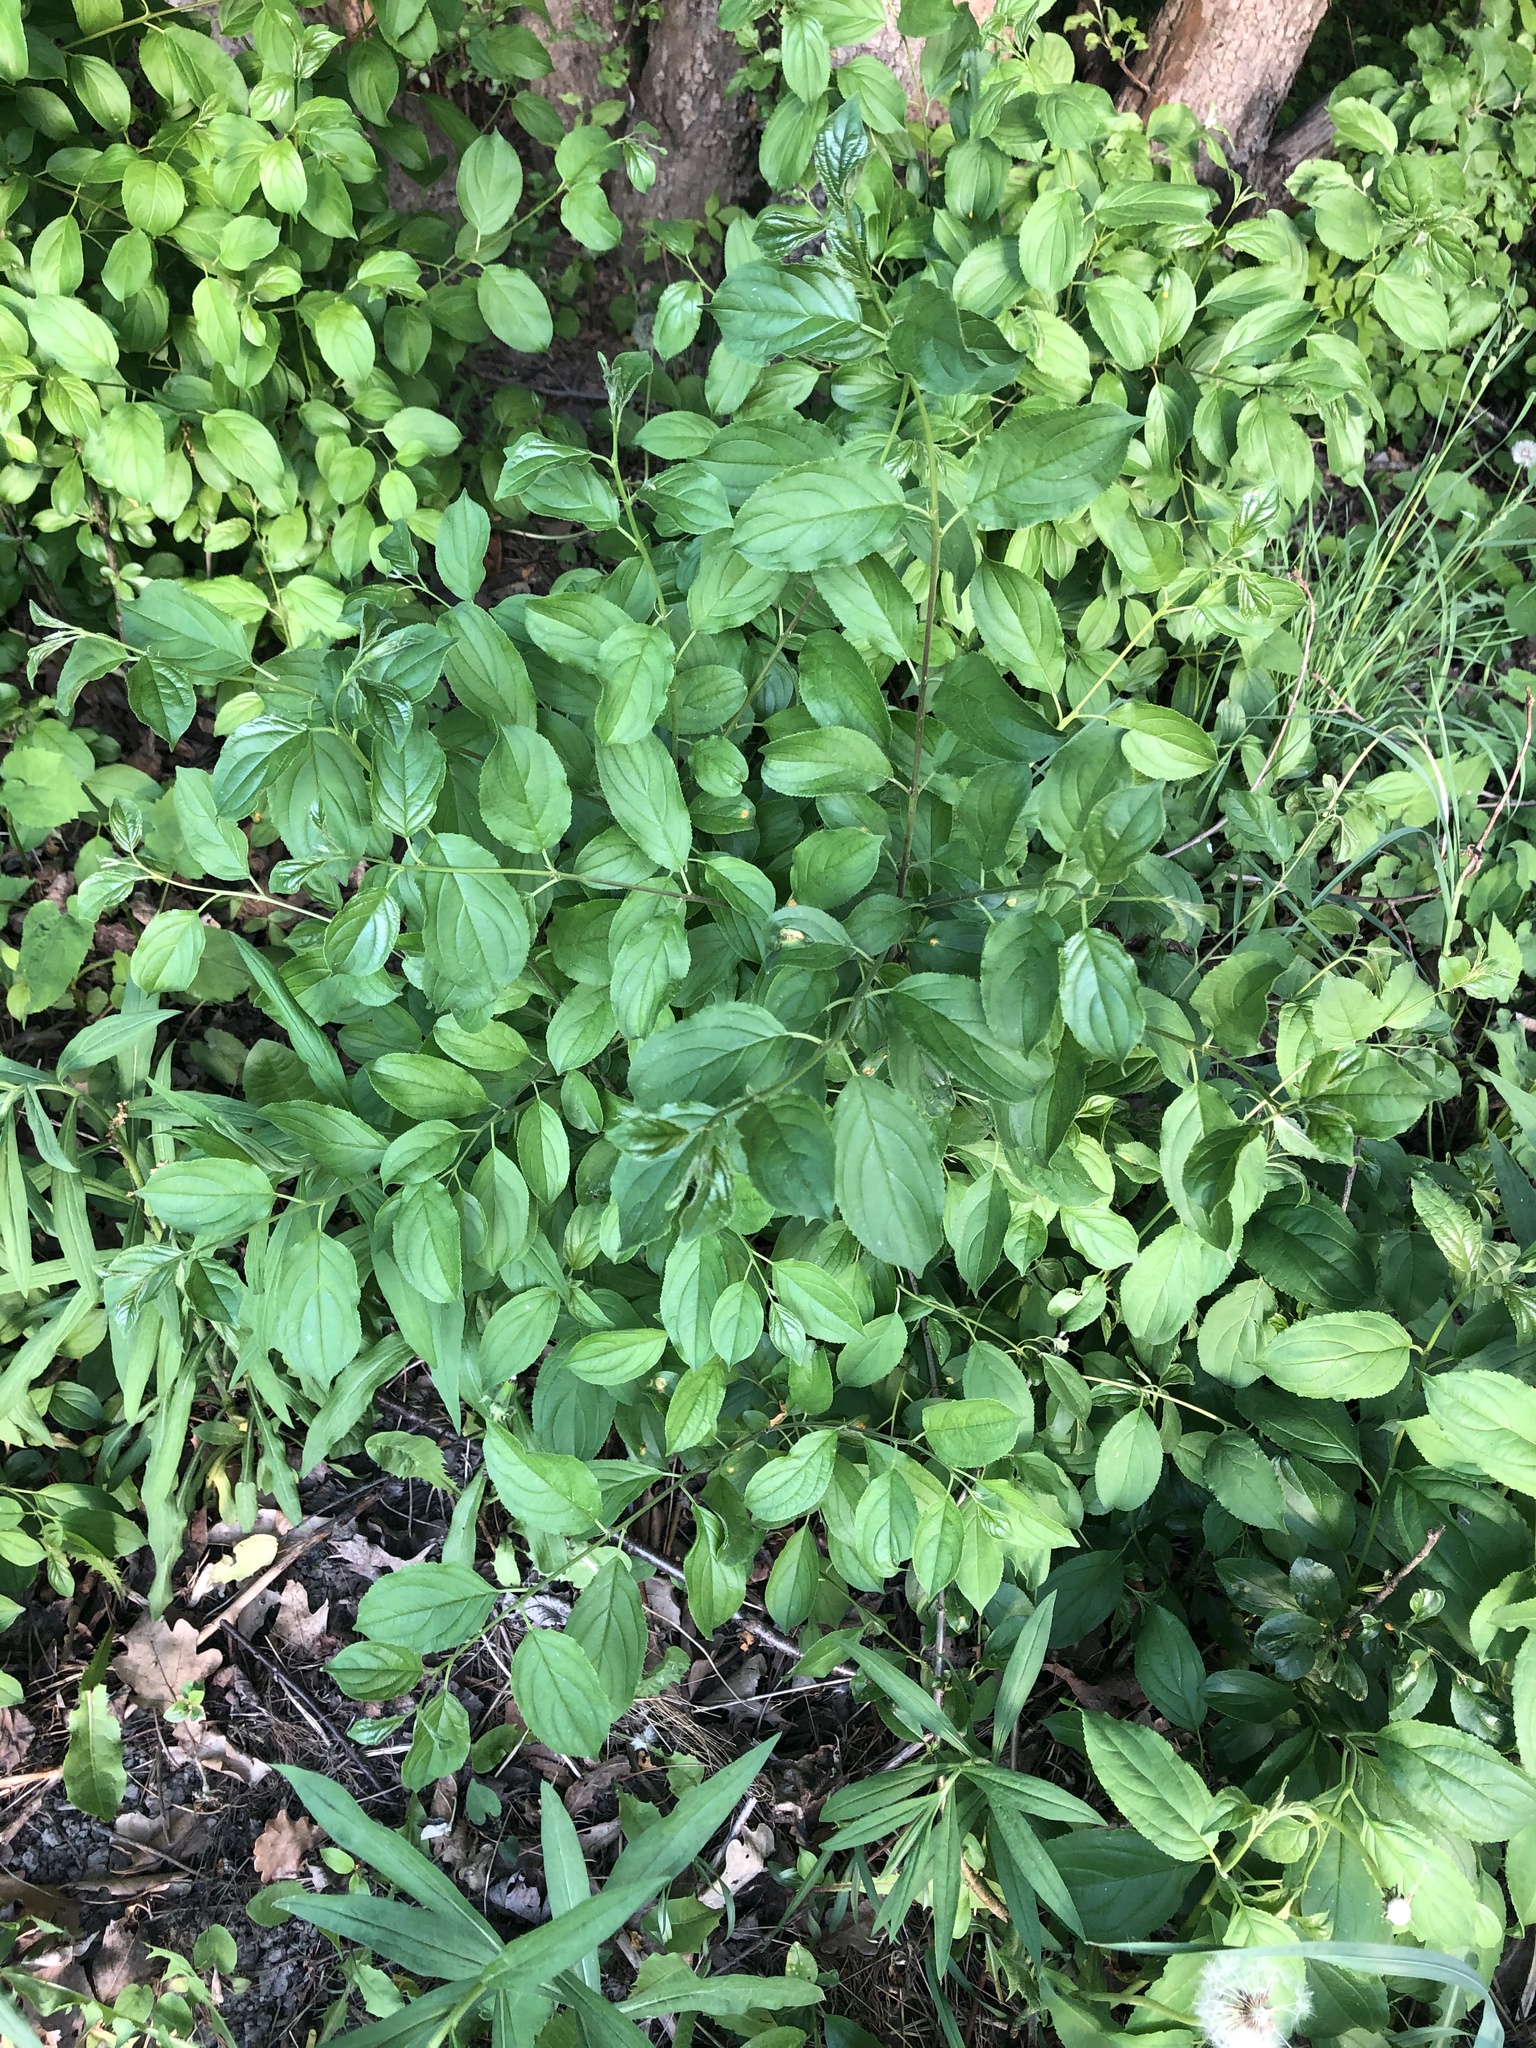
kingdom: Plantae
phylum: Tracheophyta
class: Magnoliopsida
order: Rosales
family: Rhamnaceae
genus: Rhamnus
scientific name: Rhamnus cathartica
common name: Common buckthorn
